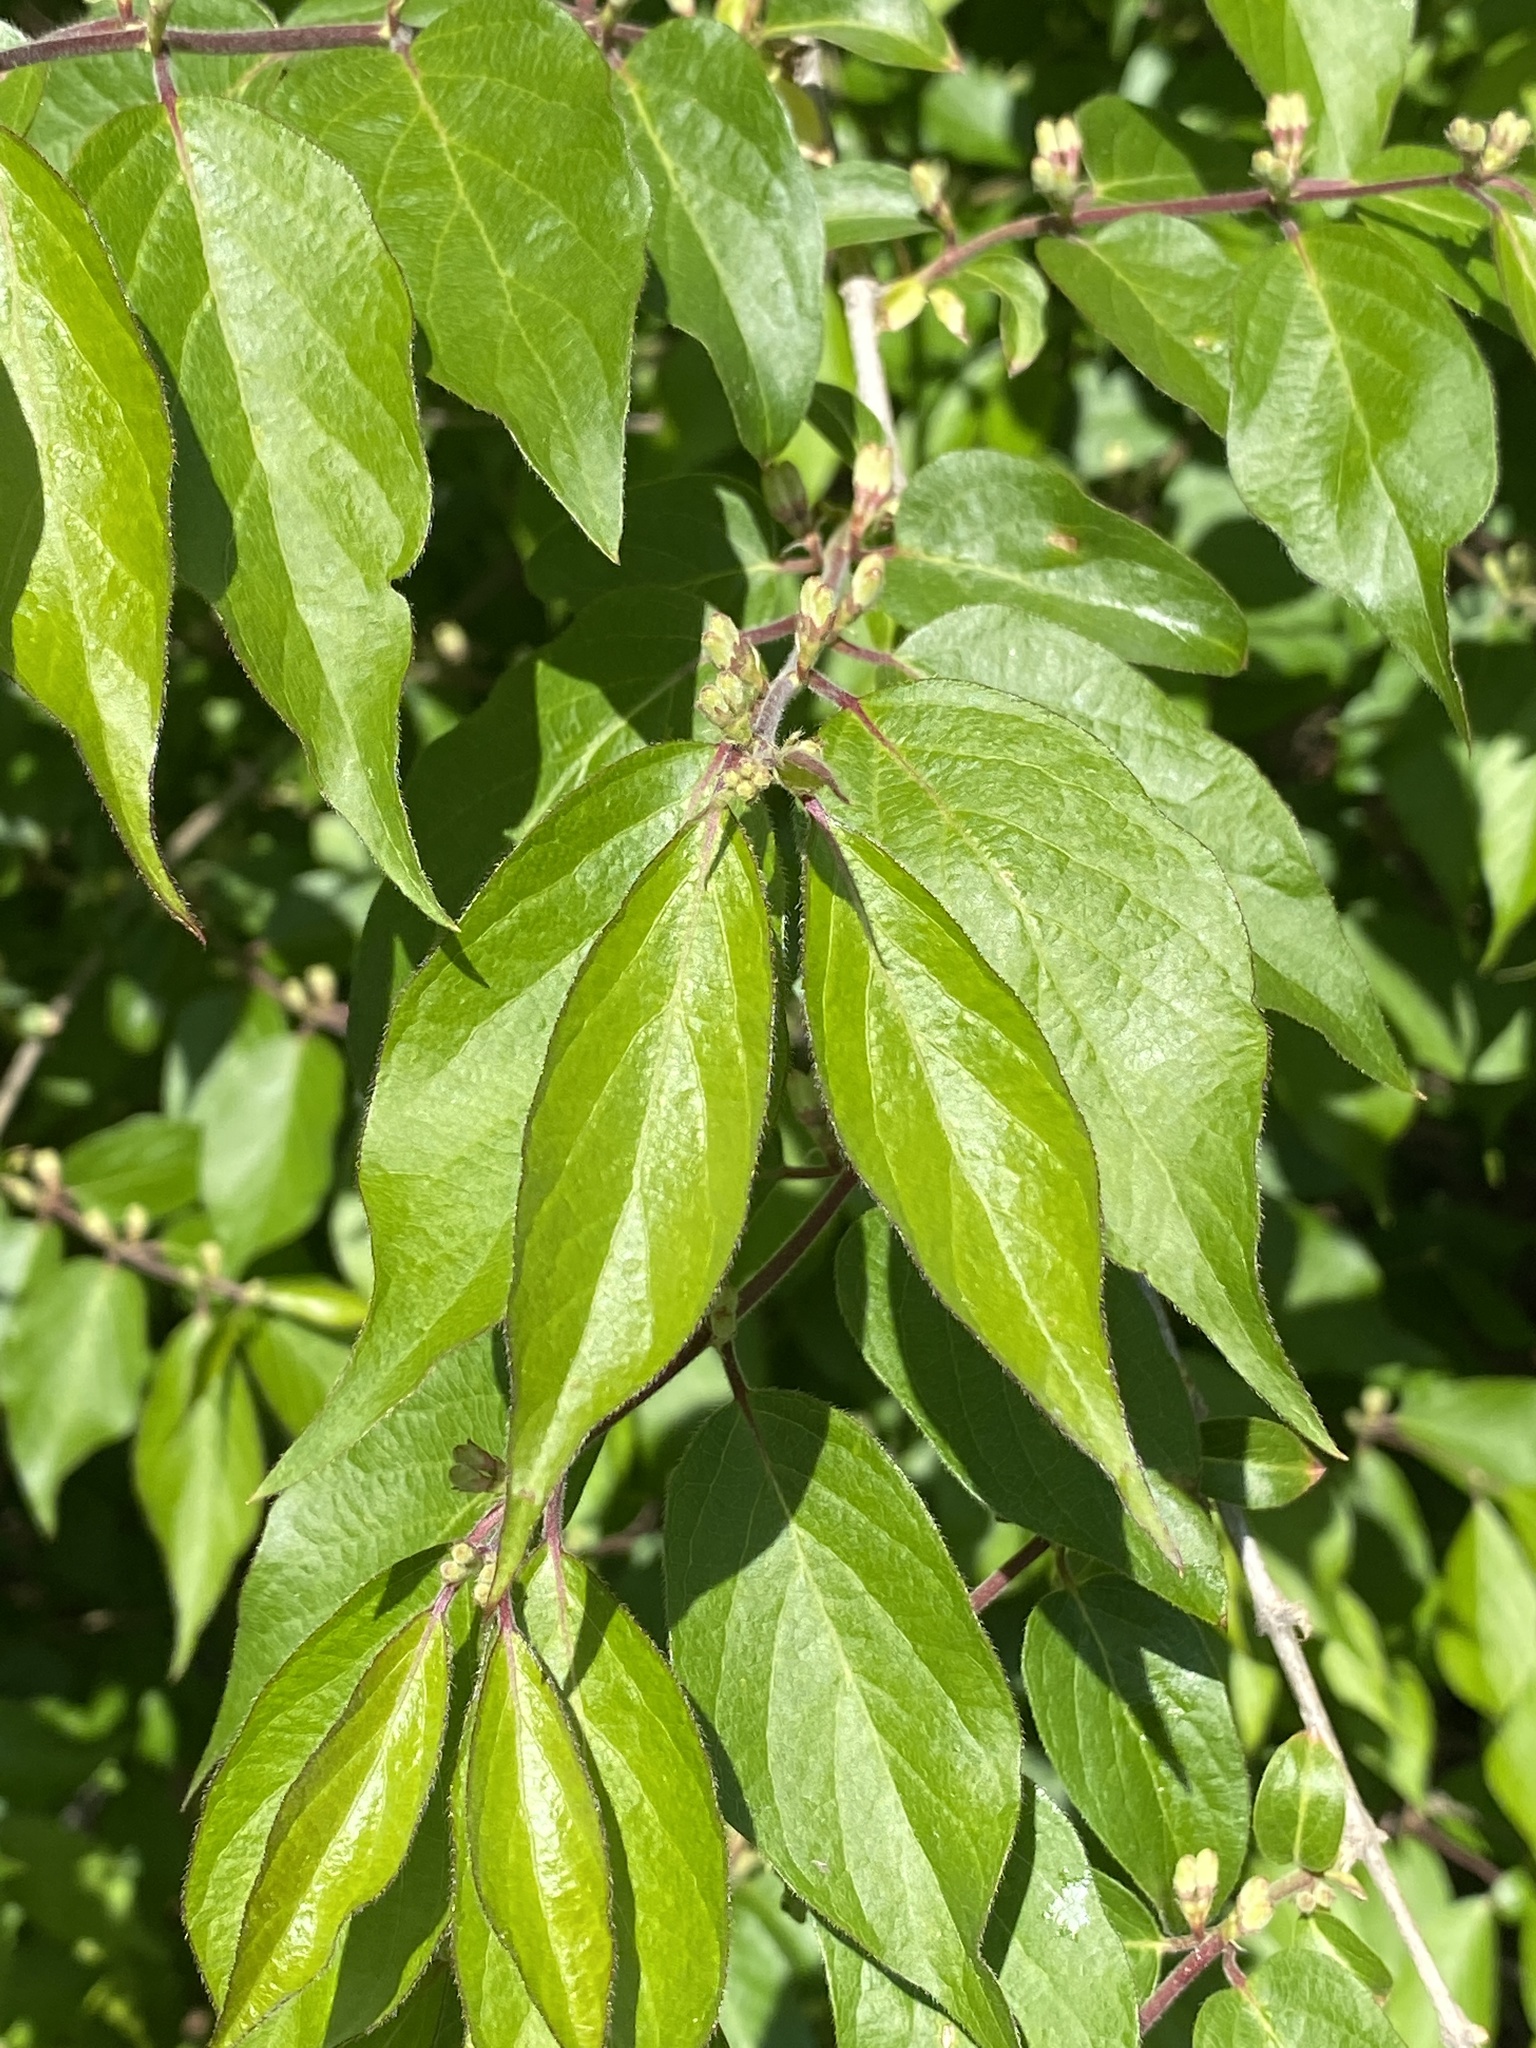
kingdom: Plantae
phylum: Tracheophyta
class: Magnoliopsida
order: Dipsacales
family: Caprifoliaceae
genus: Lonicera
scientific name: Lonicera maackii
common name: Amur honeysuckle
